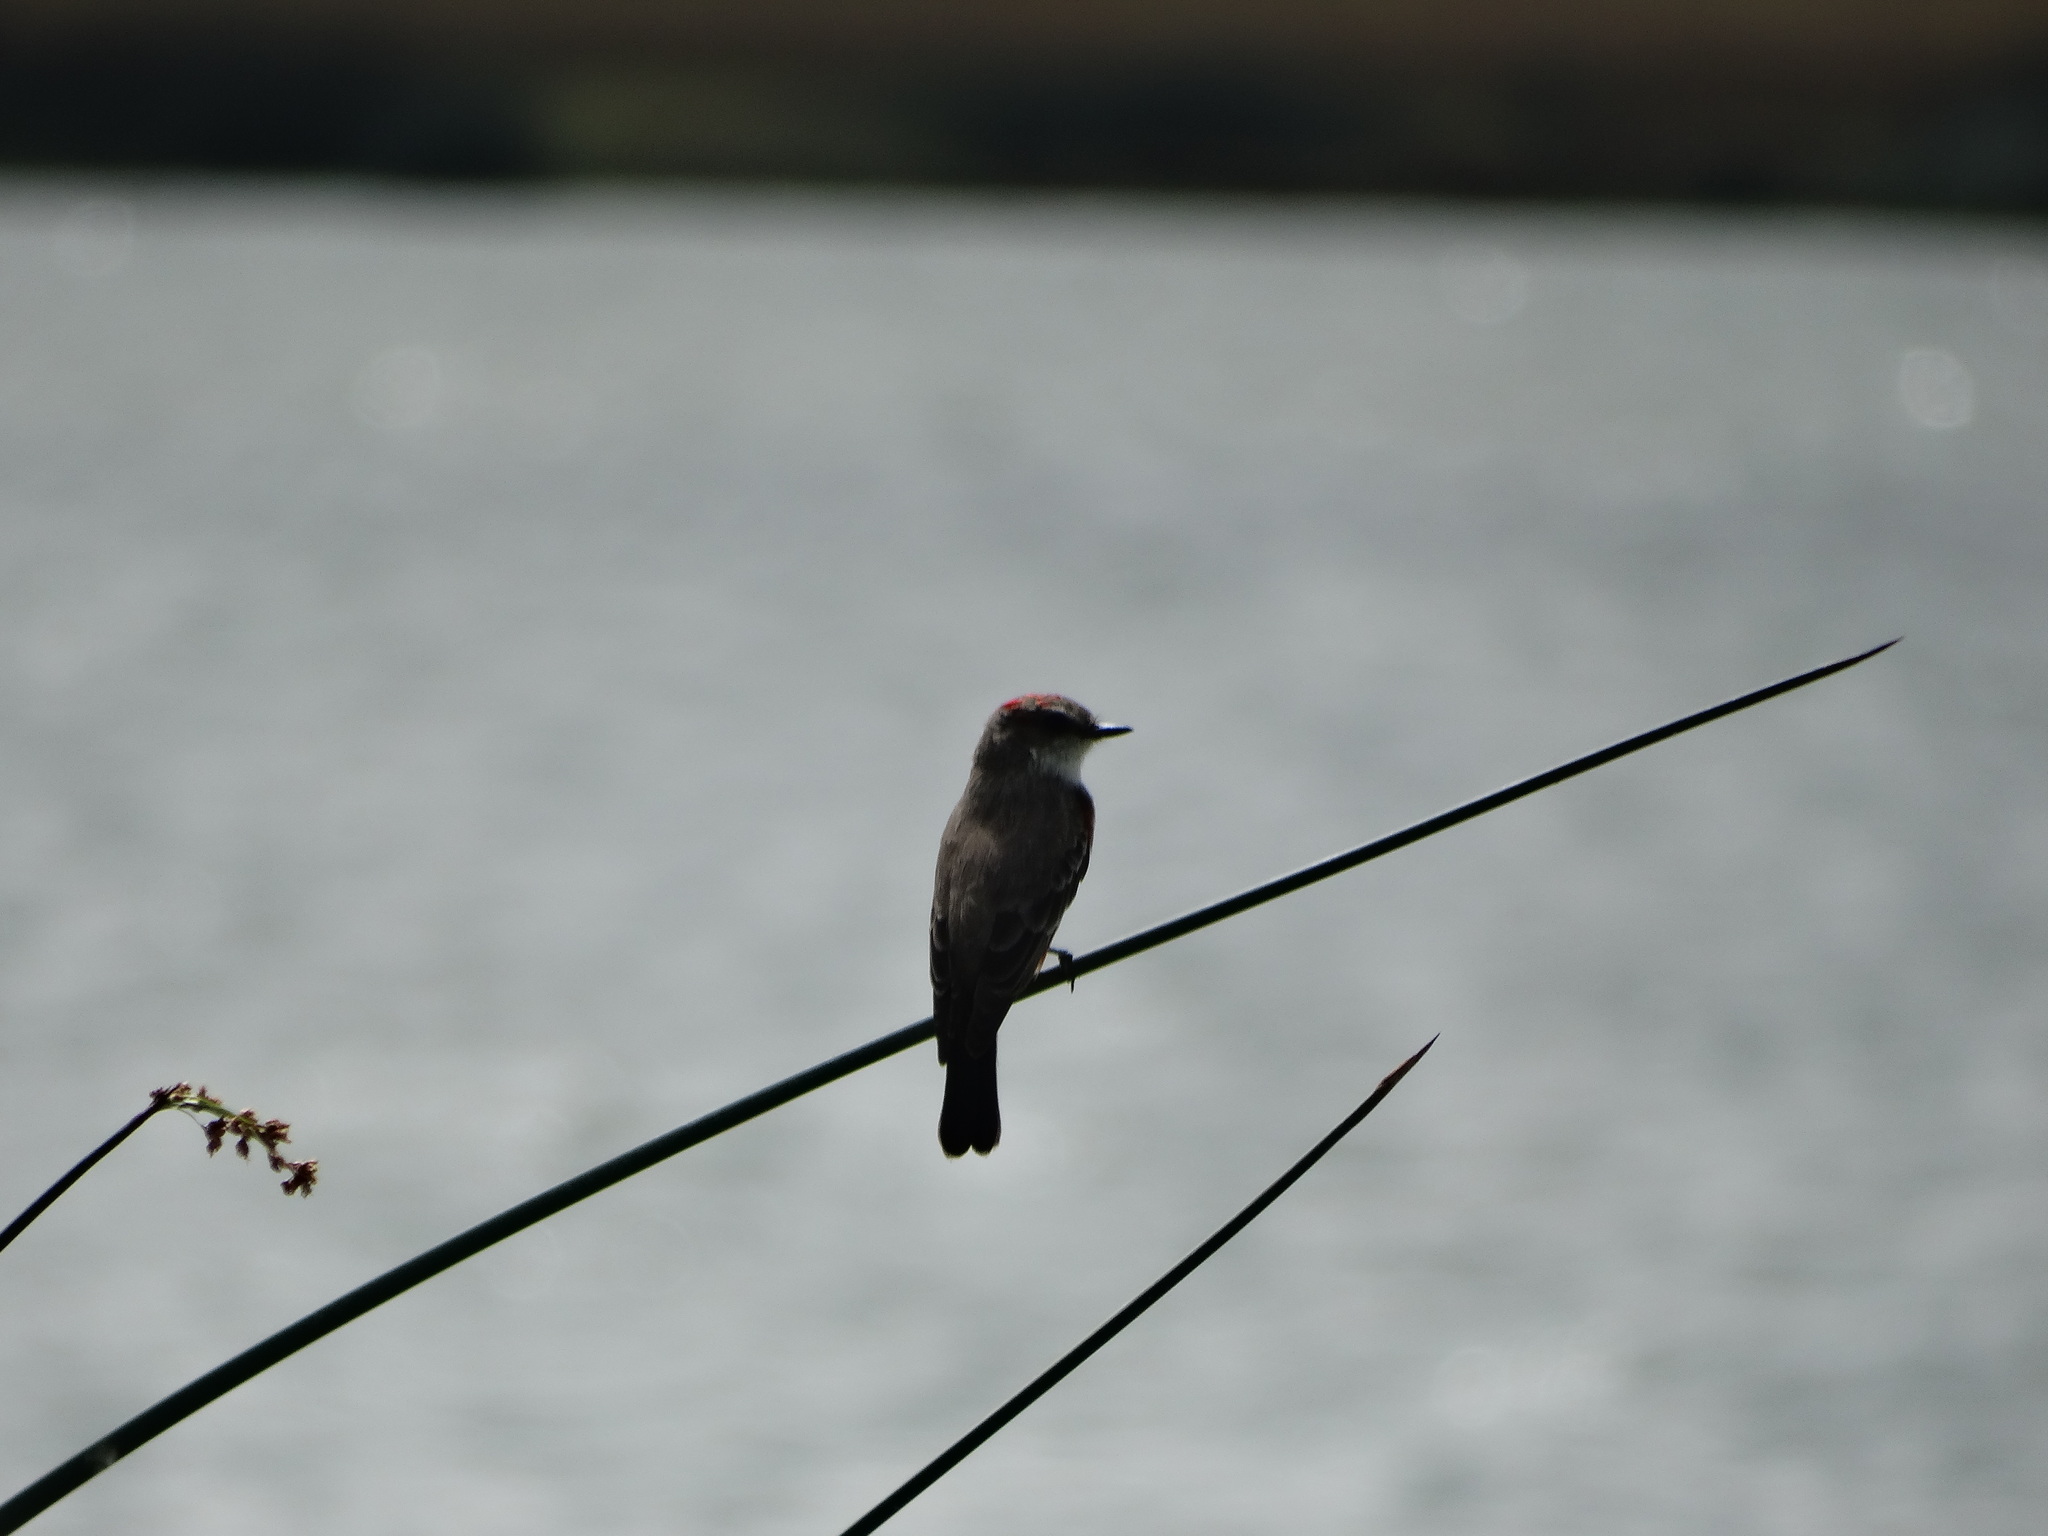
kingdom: Animalia
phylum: Chordata
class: Aves
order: Passeriformes
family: Tyrannidae
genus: Pyrocephalus
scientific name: Pyrocephalus rubinus
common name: Vermilion flycatcher
